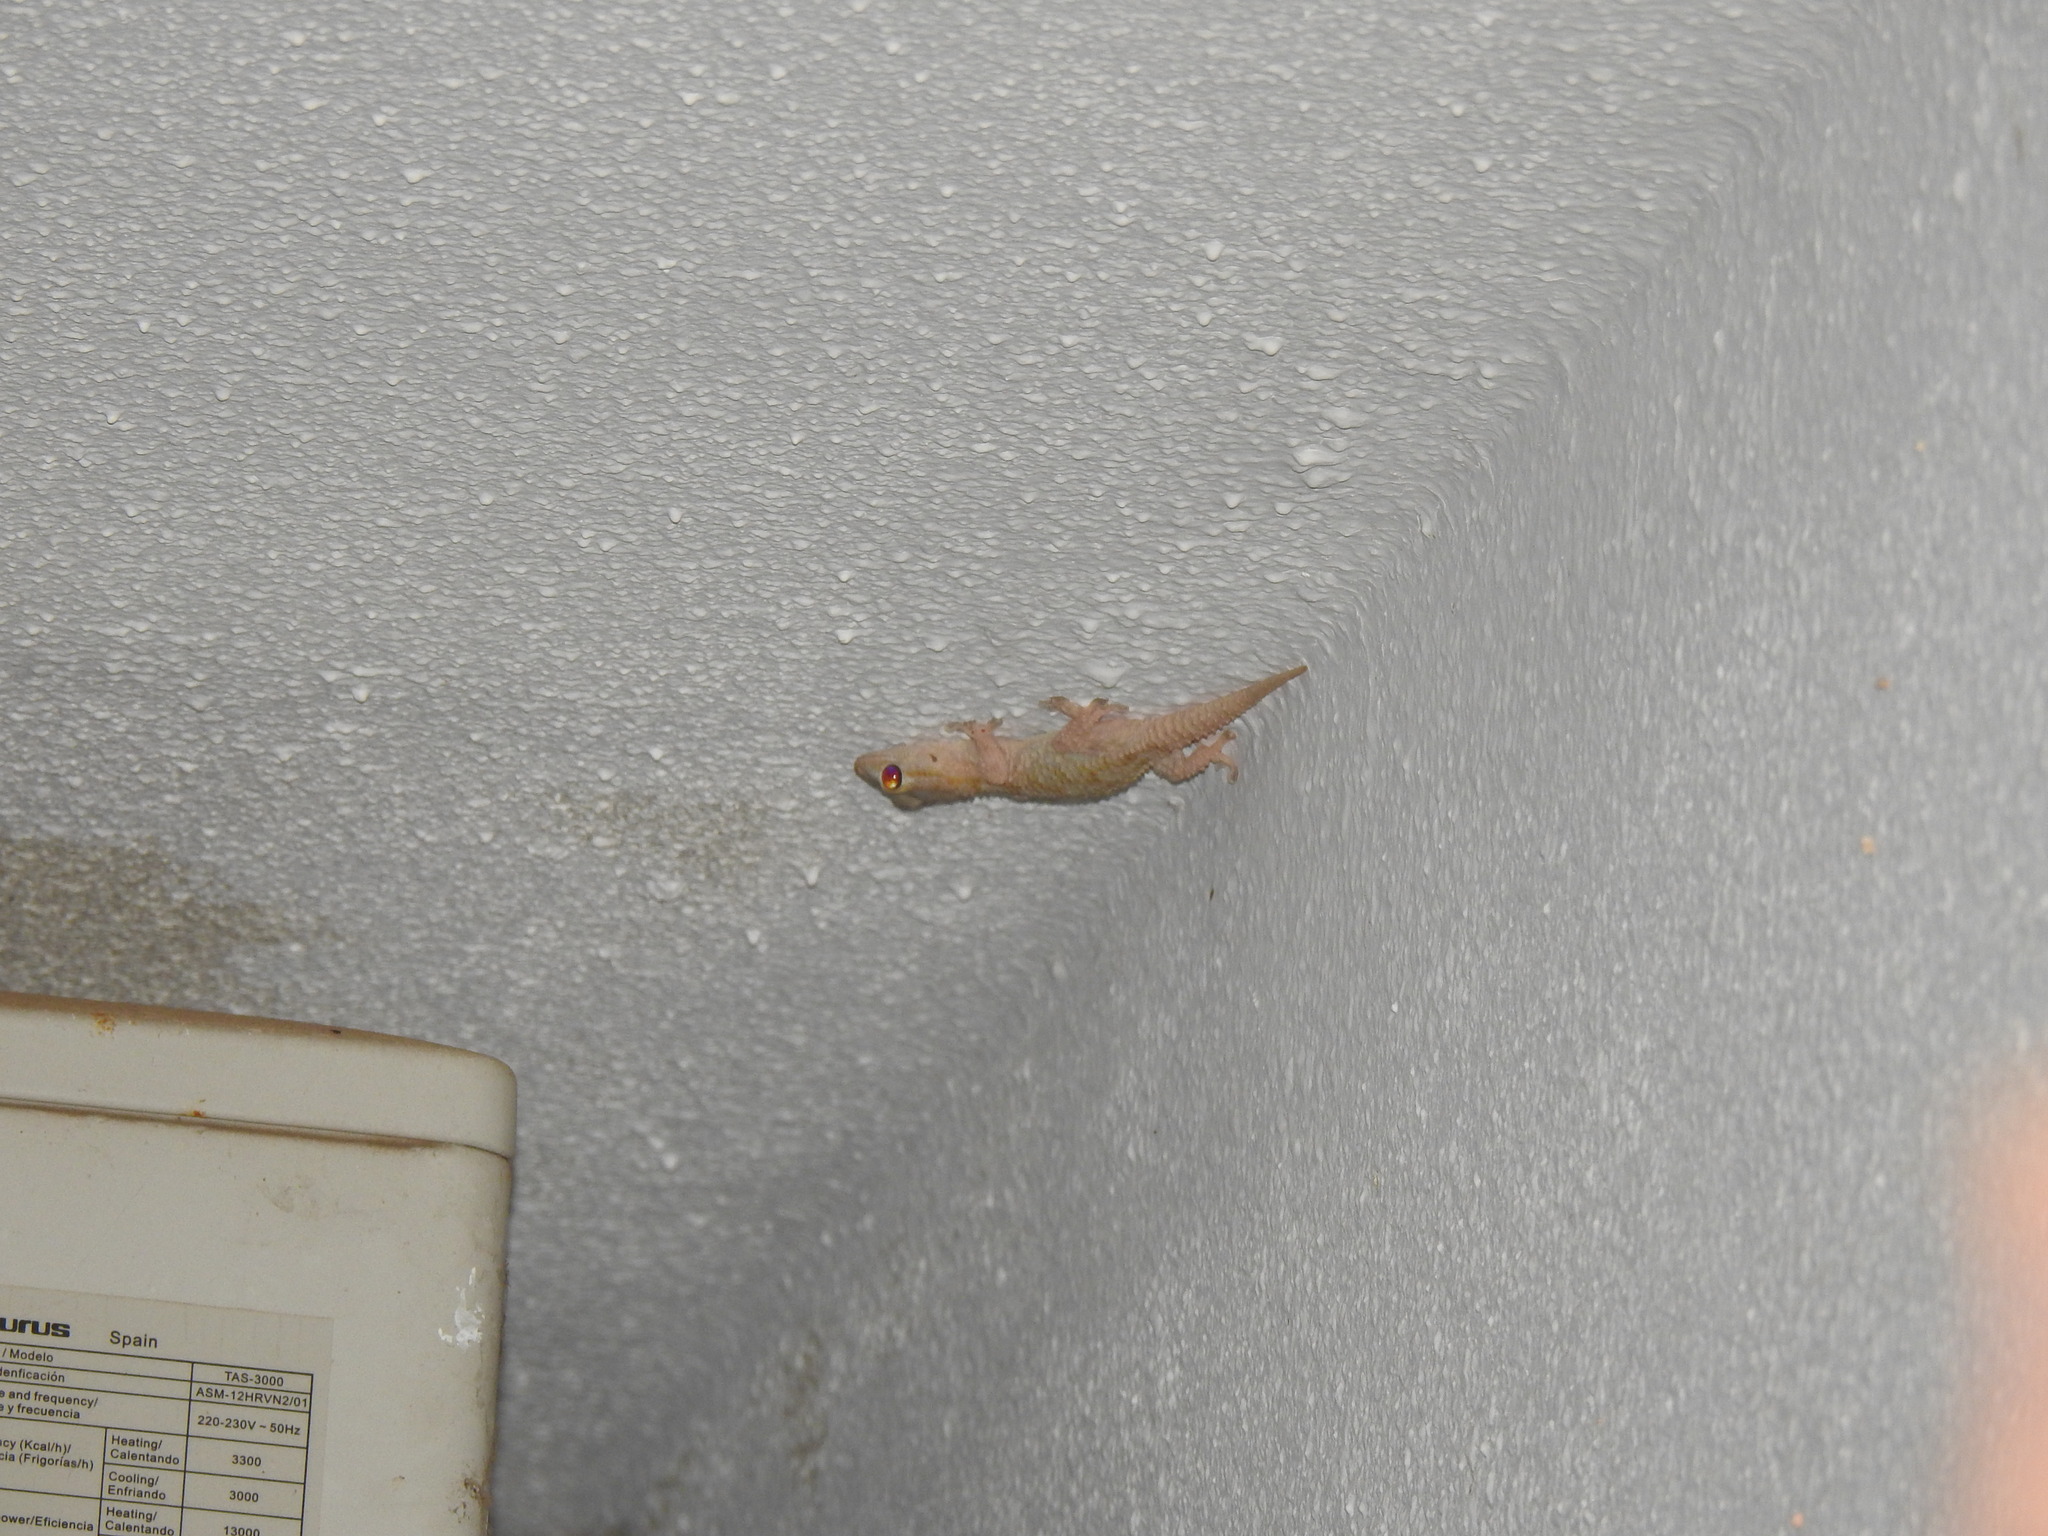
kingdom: Animalia
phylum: Chordata
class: Squamata
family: Phyllodactylidae
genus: Tarentola
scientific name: Tarentola mauritanica
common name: Moorish gecko
